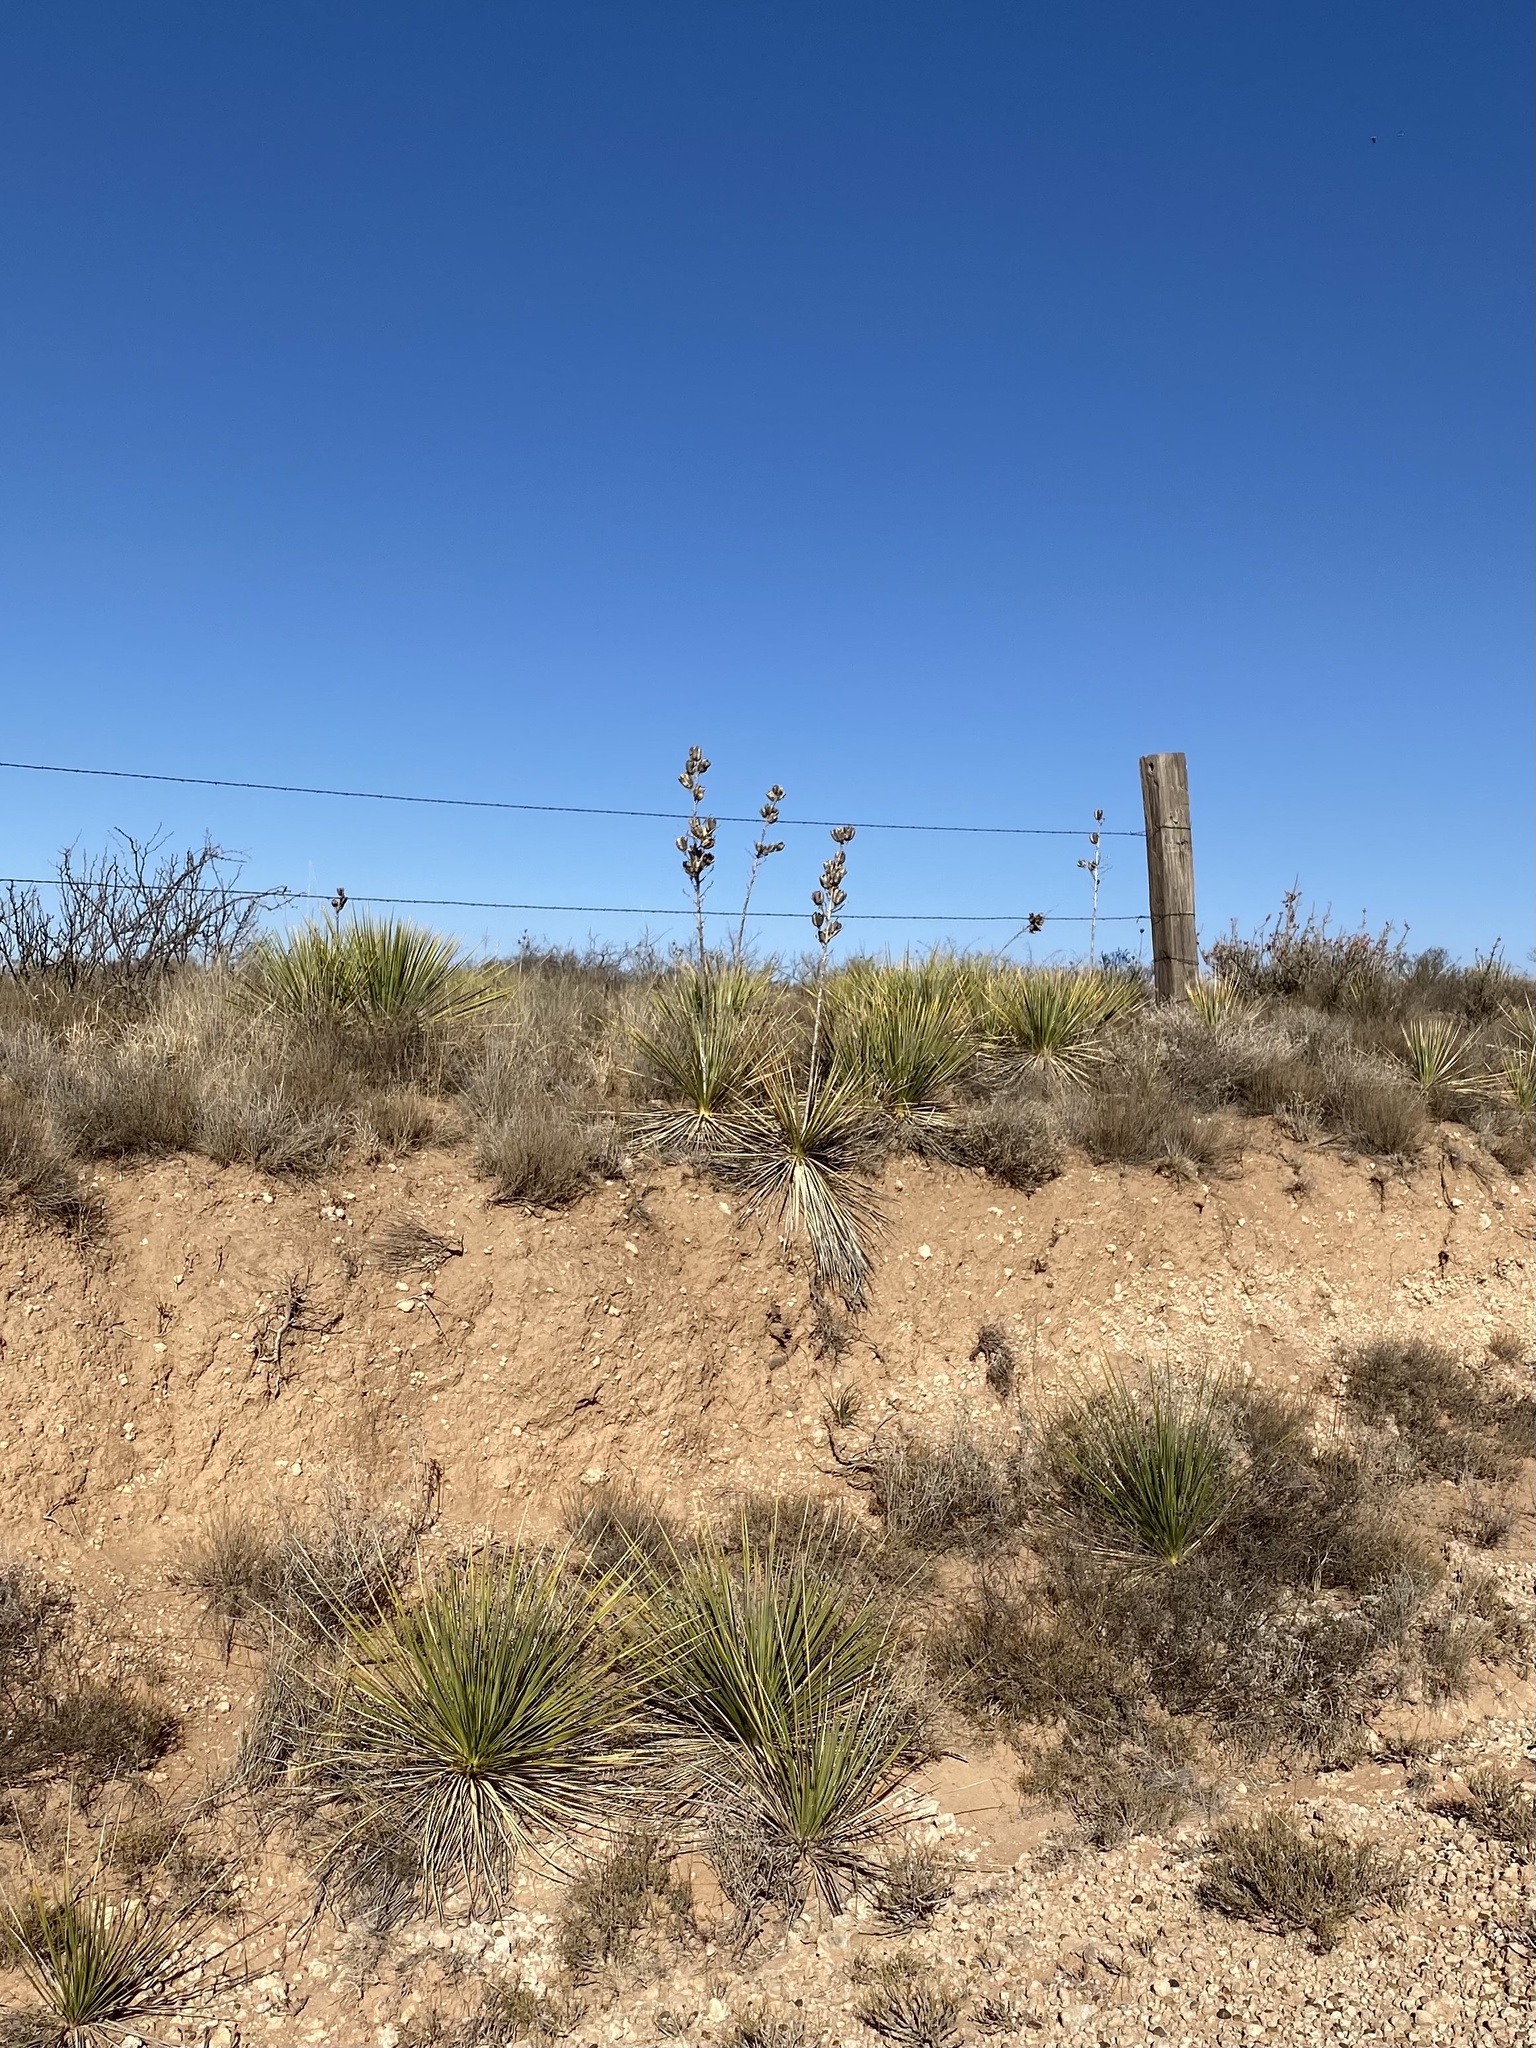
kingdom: Plantae
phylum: Tracheophyta
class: Liliopsida
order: Asparagales
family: Asparagaceae
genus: Yucca
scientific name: Yucca campestris
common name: Plains yucca
